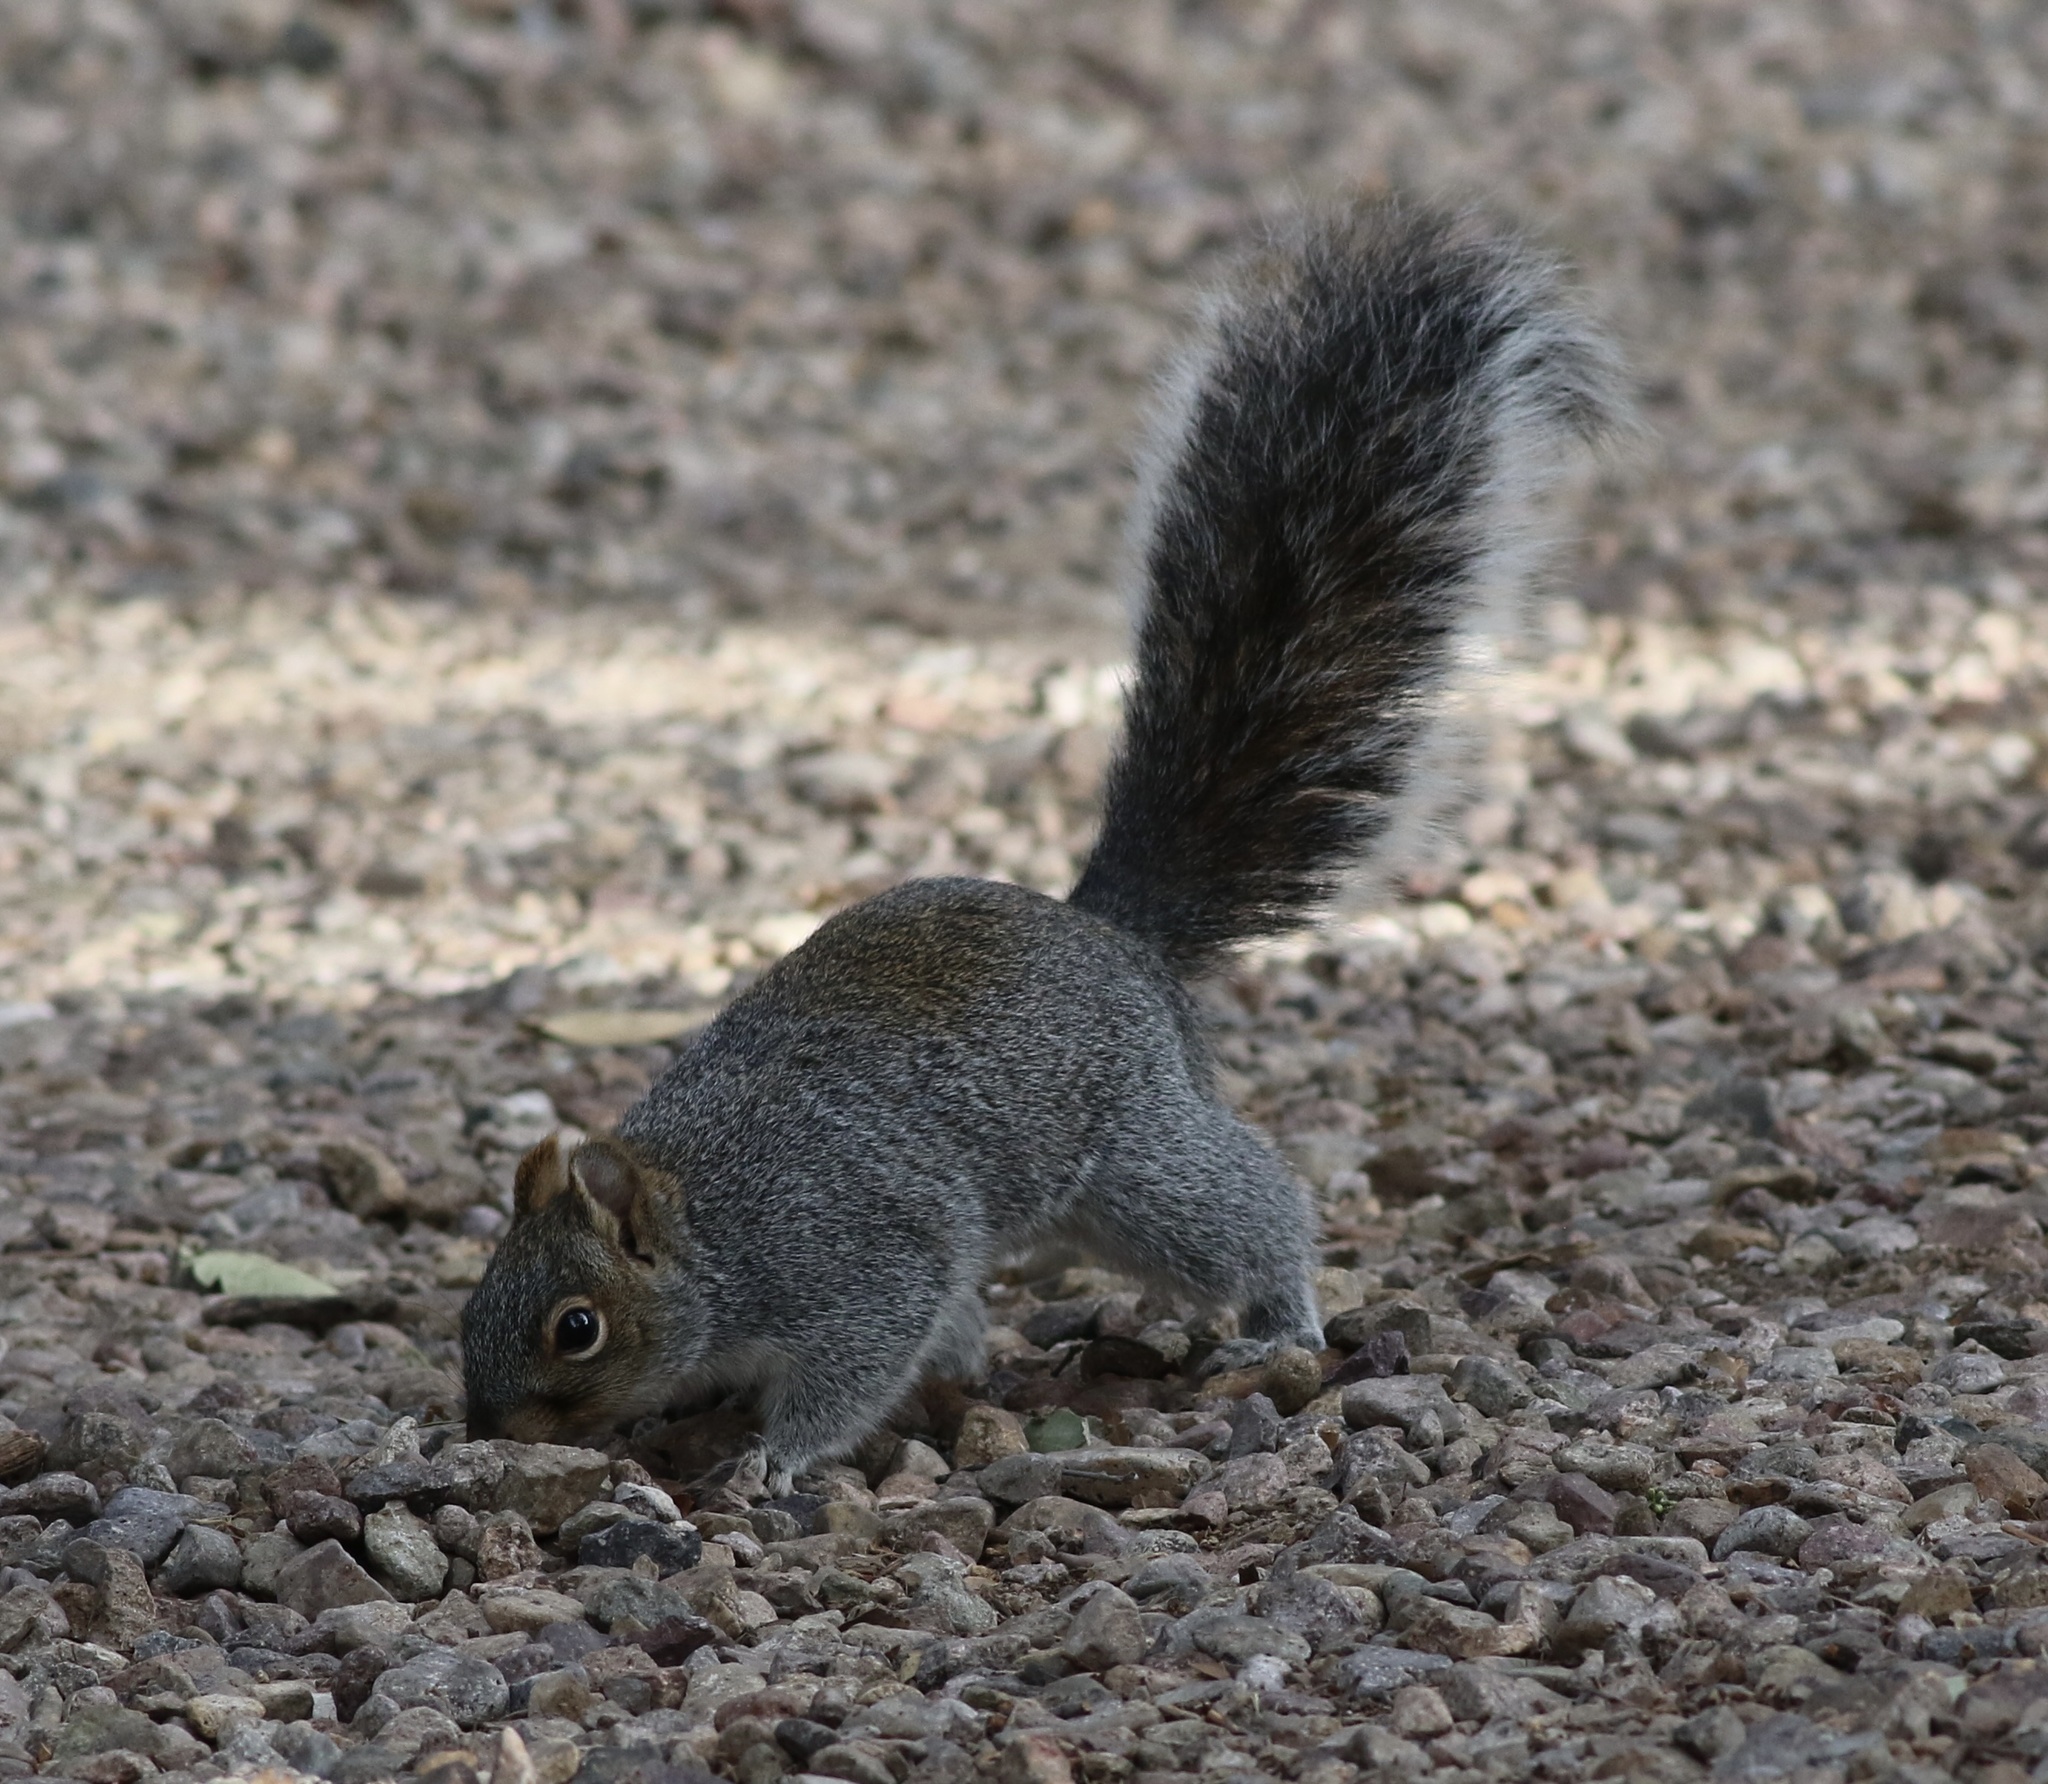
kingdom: Animalia
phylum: Chordata
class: Mammalia
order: Rodentia
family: Sciuridae
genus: Sciurus
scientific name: Sciurus arizonensis
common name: Arizona gray squirrel
